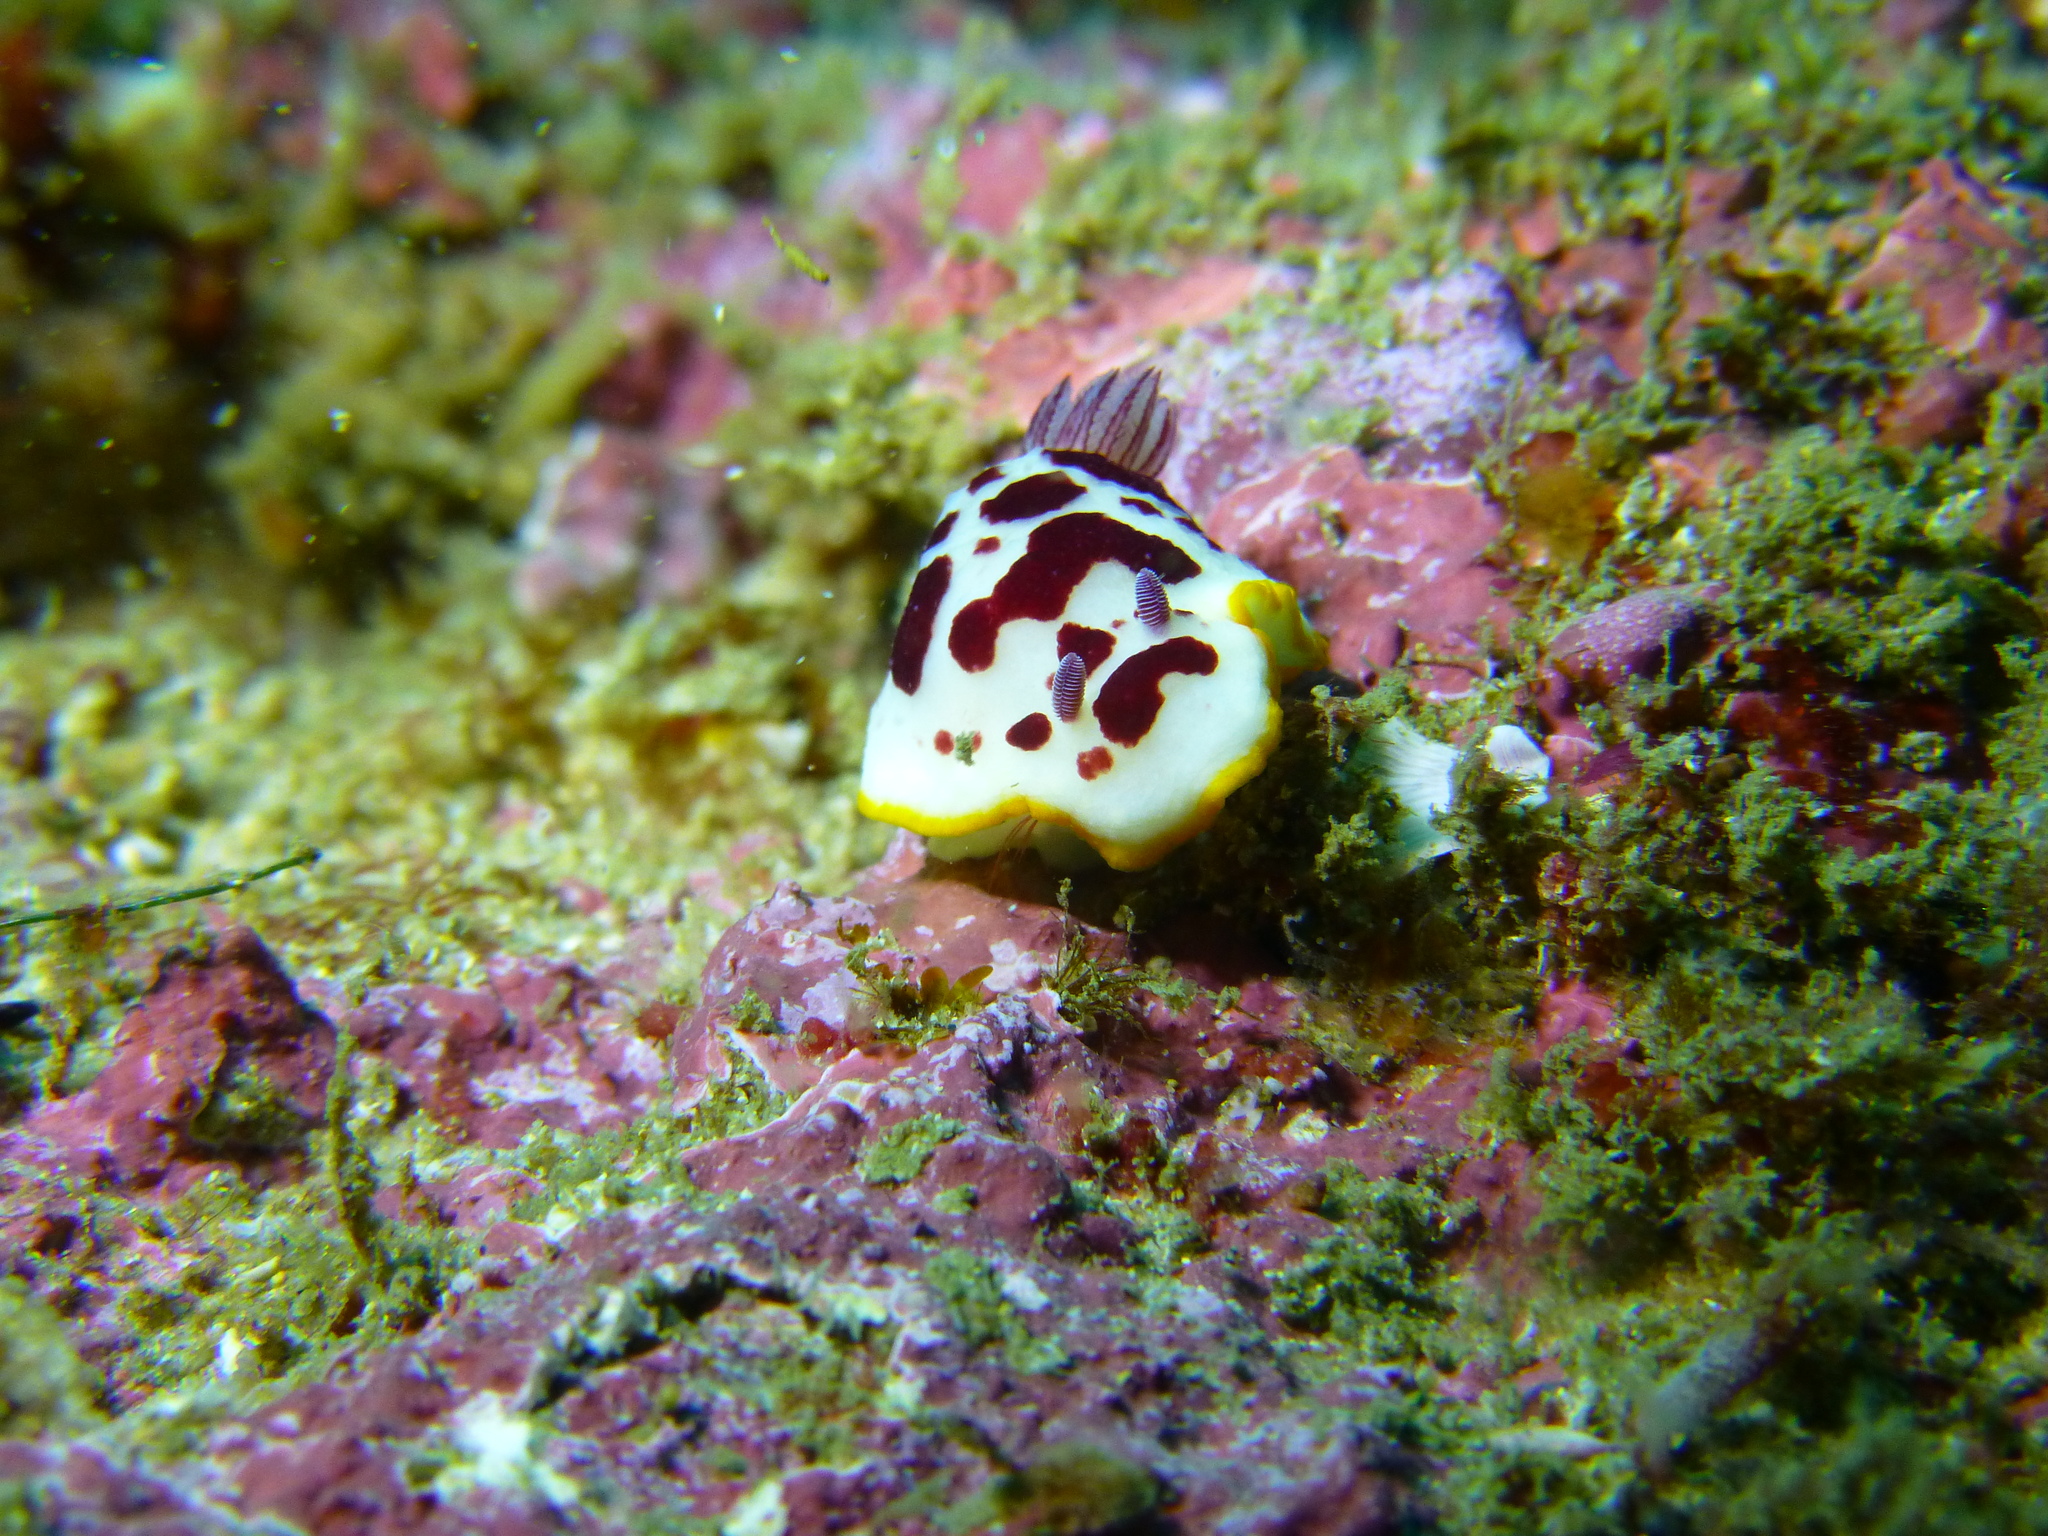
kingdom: Animalia
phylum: Mollusca
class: Gastropoda
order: Nudibranchia
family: Chromodorididae
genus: Goniobranchus
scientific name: Goniobranchus splendidus
